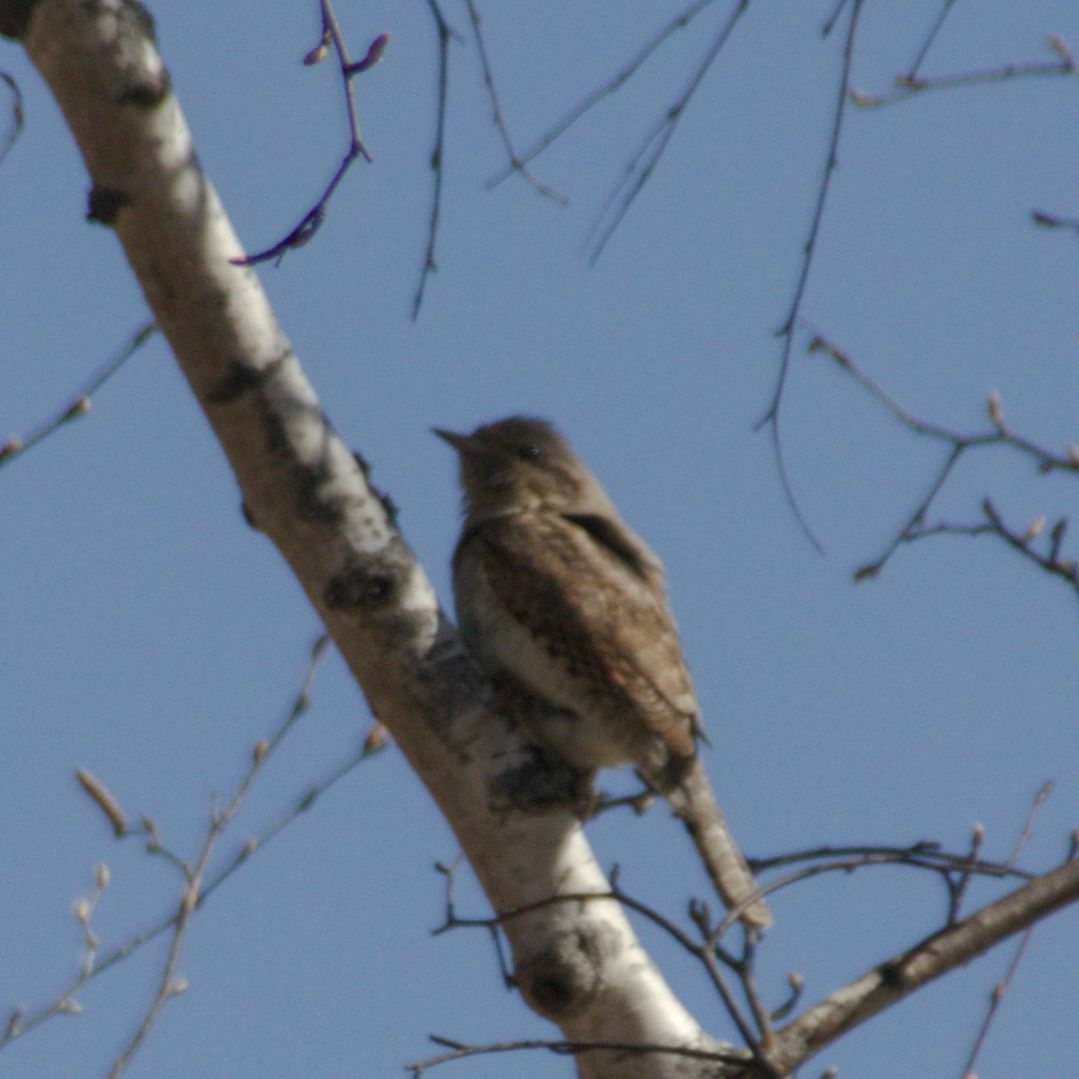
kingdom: Animalia
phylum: Chordata
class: Aves
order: Piciformes
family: Picidae
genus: Jynx
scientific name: Jynx torquilla
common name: Eurasian wryneck
